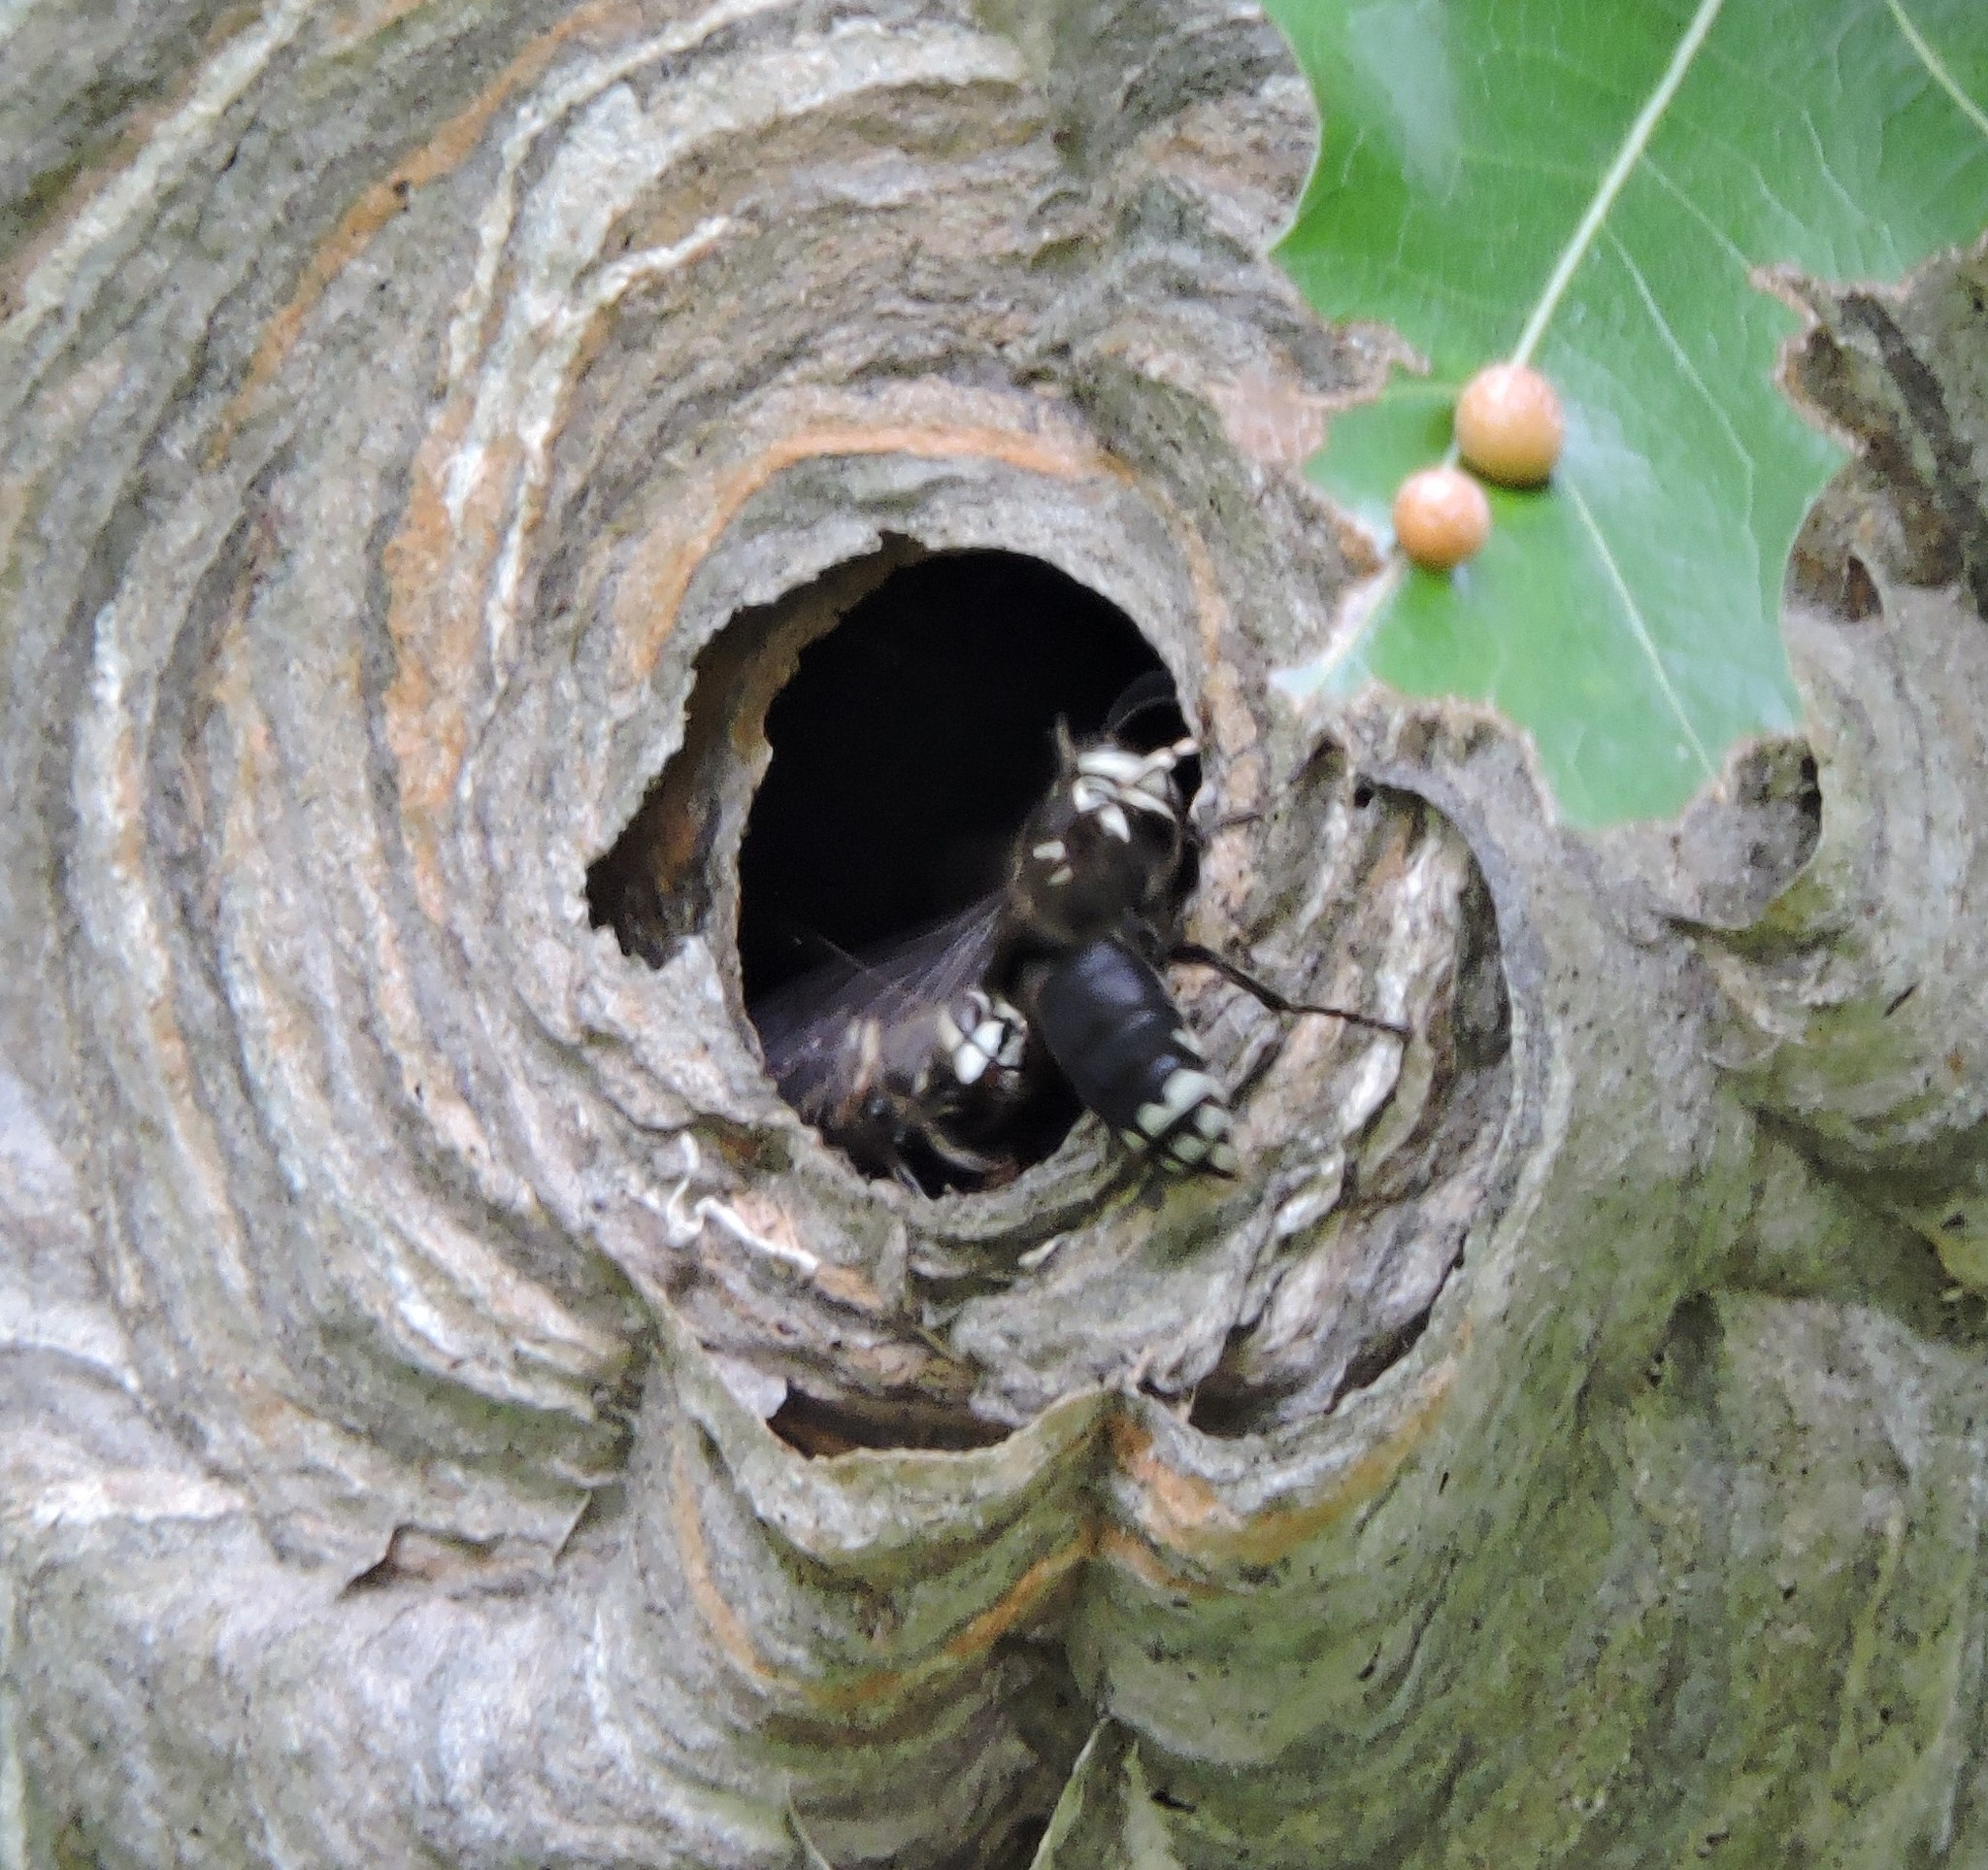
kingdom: Animalia
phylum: Arthropoda
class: Insecta
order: Hymenoptera
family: Vespidae
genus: Dolichovespula
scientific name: Dolichovespula maculata
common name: Bald-faced hornet
